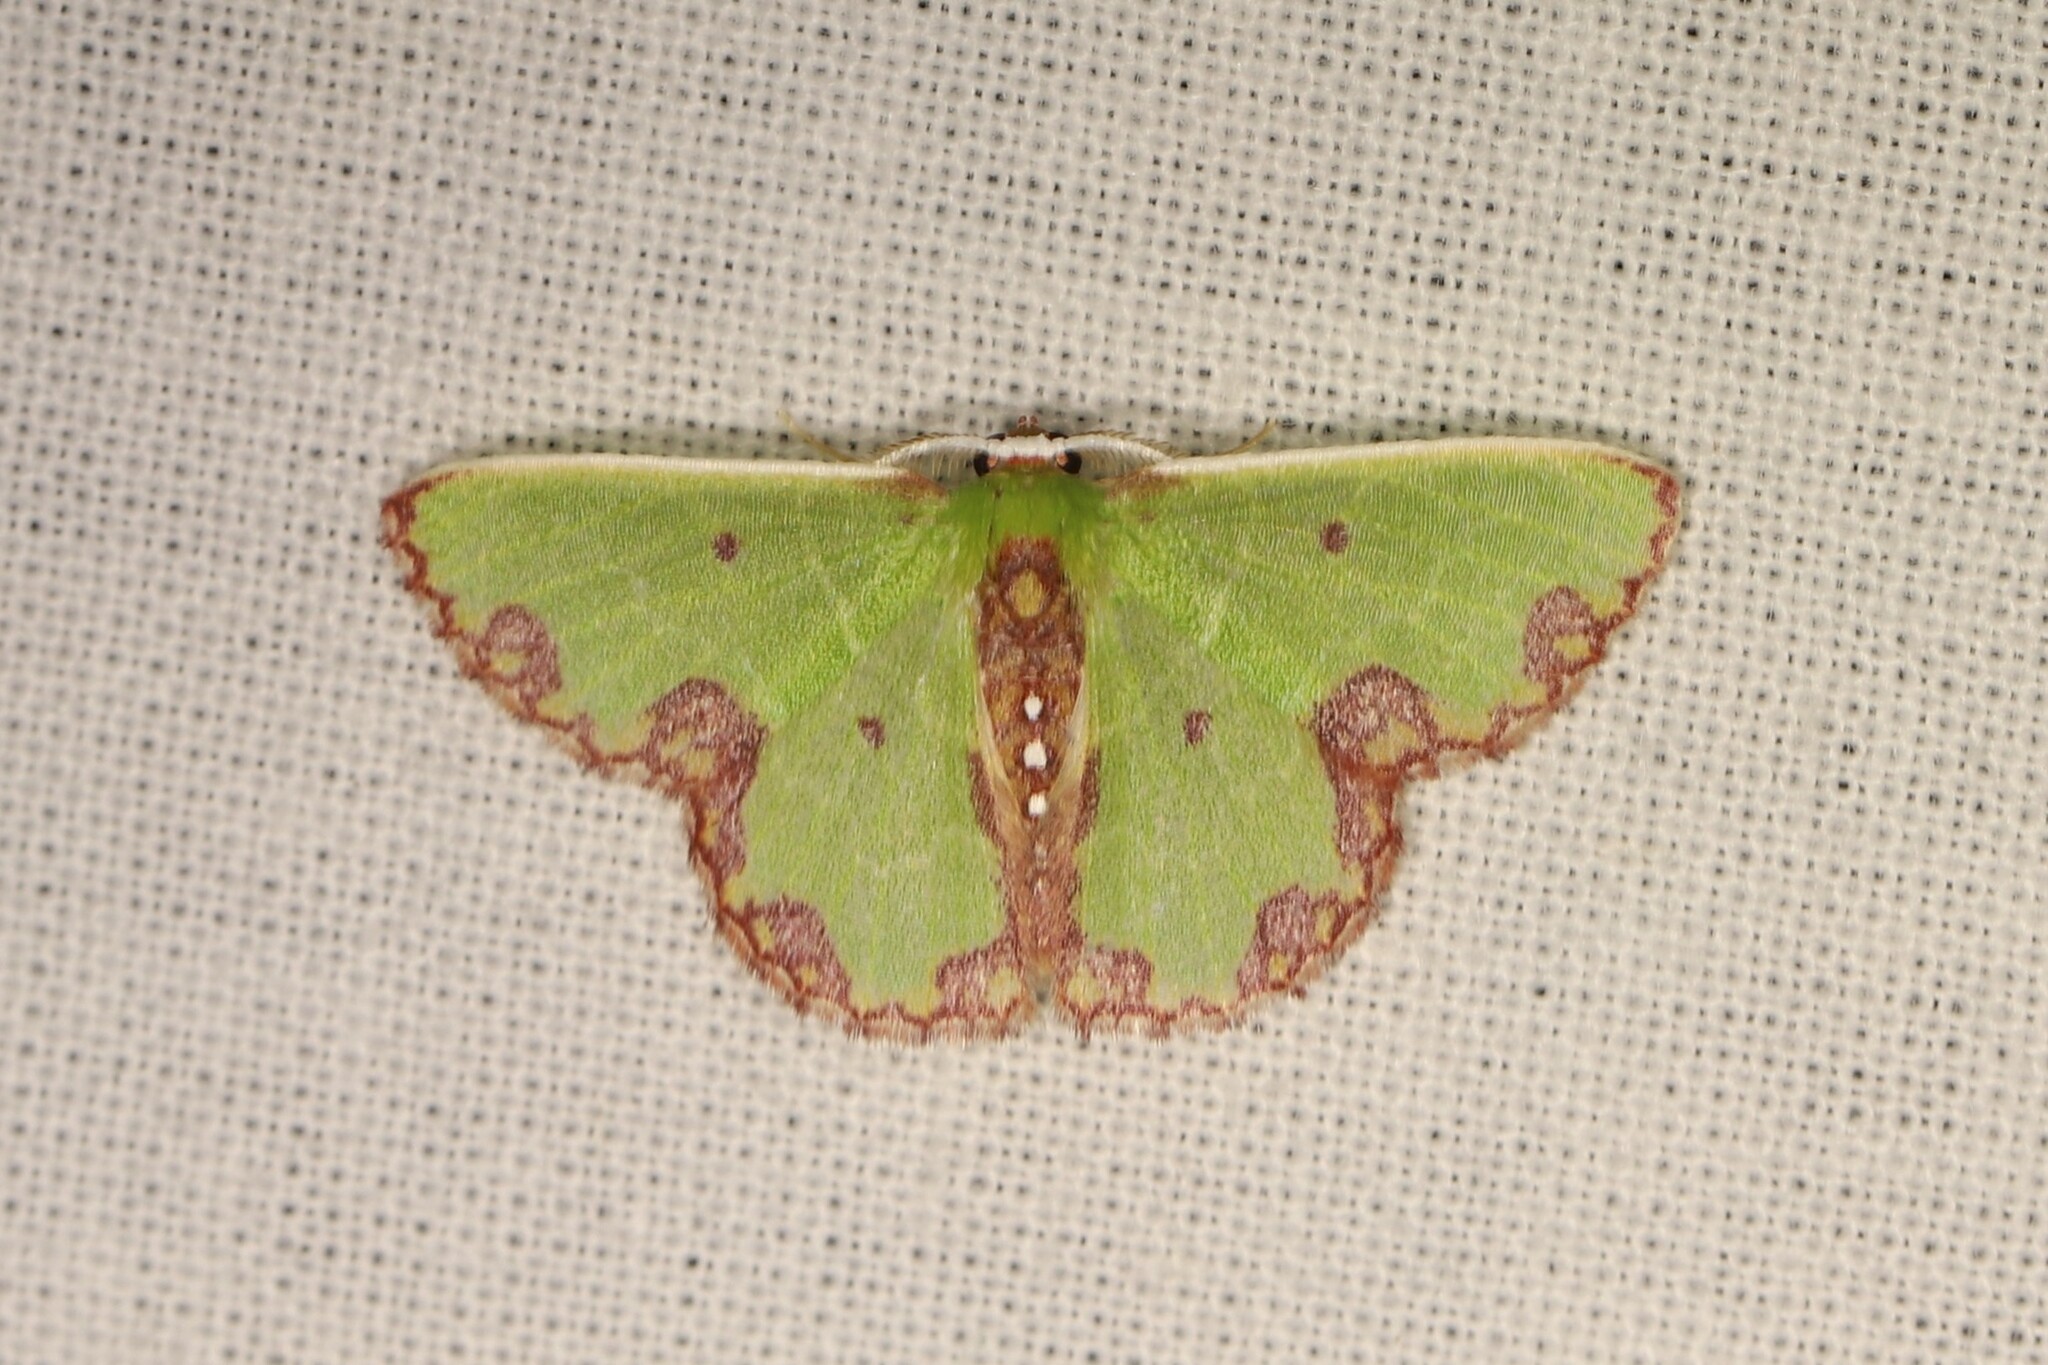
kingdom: Animalia
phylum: Arthropoda
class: Insecta
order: Lepidoptera
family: Geometridae
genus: Synchlora
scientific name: Synchlora gerularia
